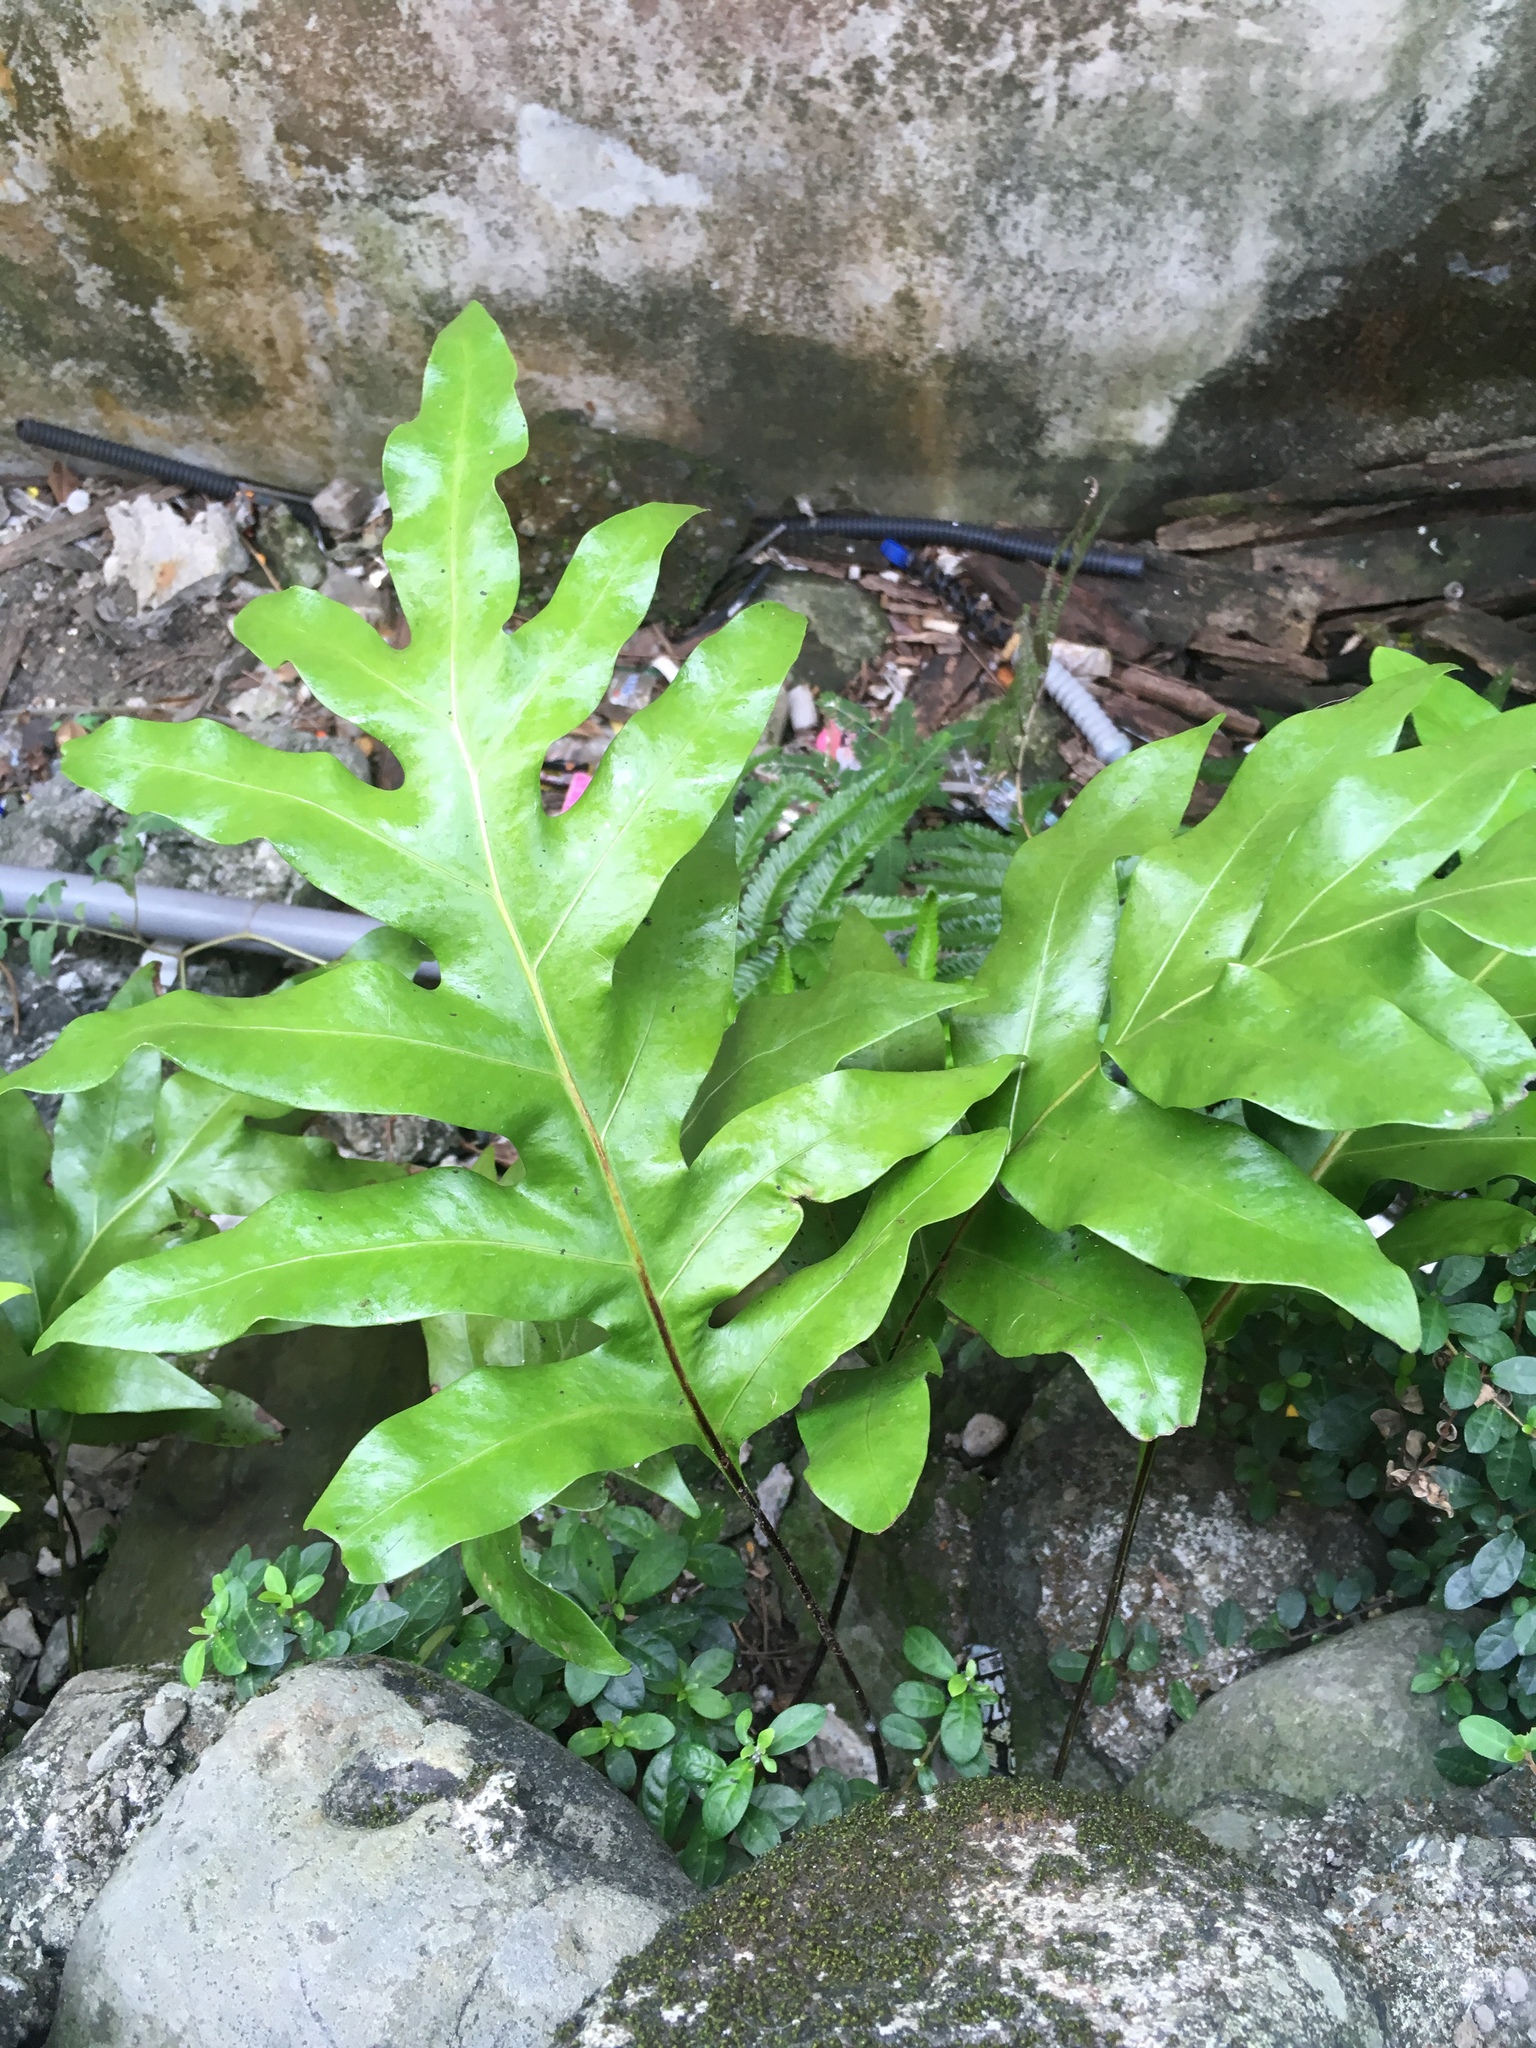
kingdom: Plantae
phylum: Tracheophyta
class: Polypodiopsida
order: Polypodiales
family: Polypodiaceae
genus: Microsorum
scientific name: Microsorum scolopendria
